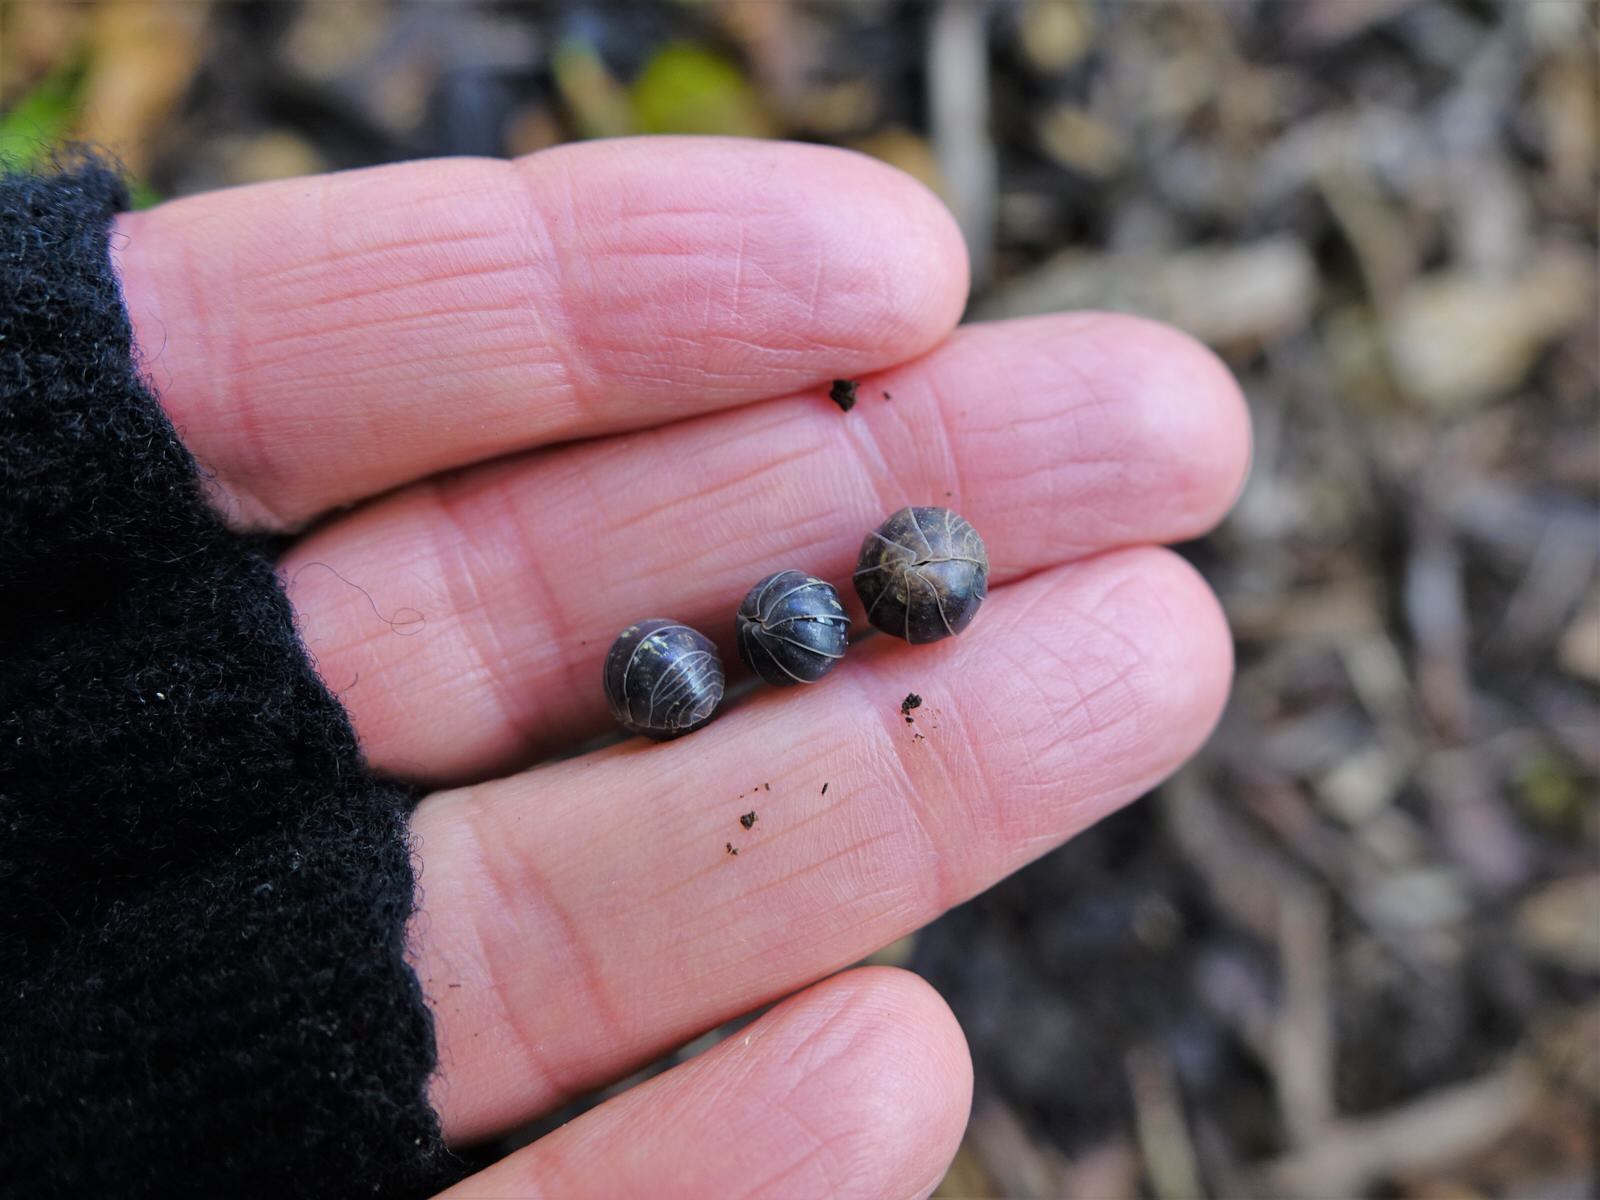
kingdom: Animalia
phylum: Arthropoda
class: Malacostraca
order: Isopoda
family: Armadillidiidae
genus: Armadillidium
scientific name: Armadillidium vulgare
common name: Common pill woodlouse
